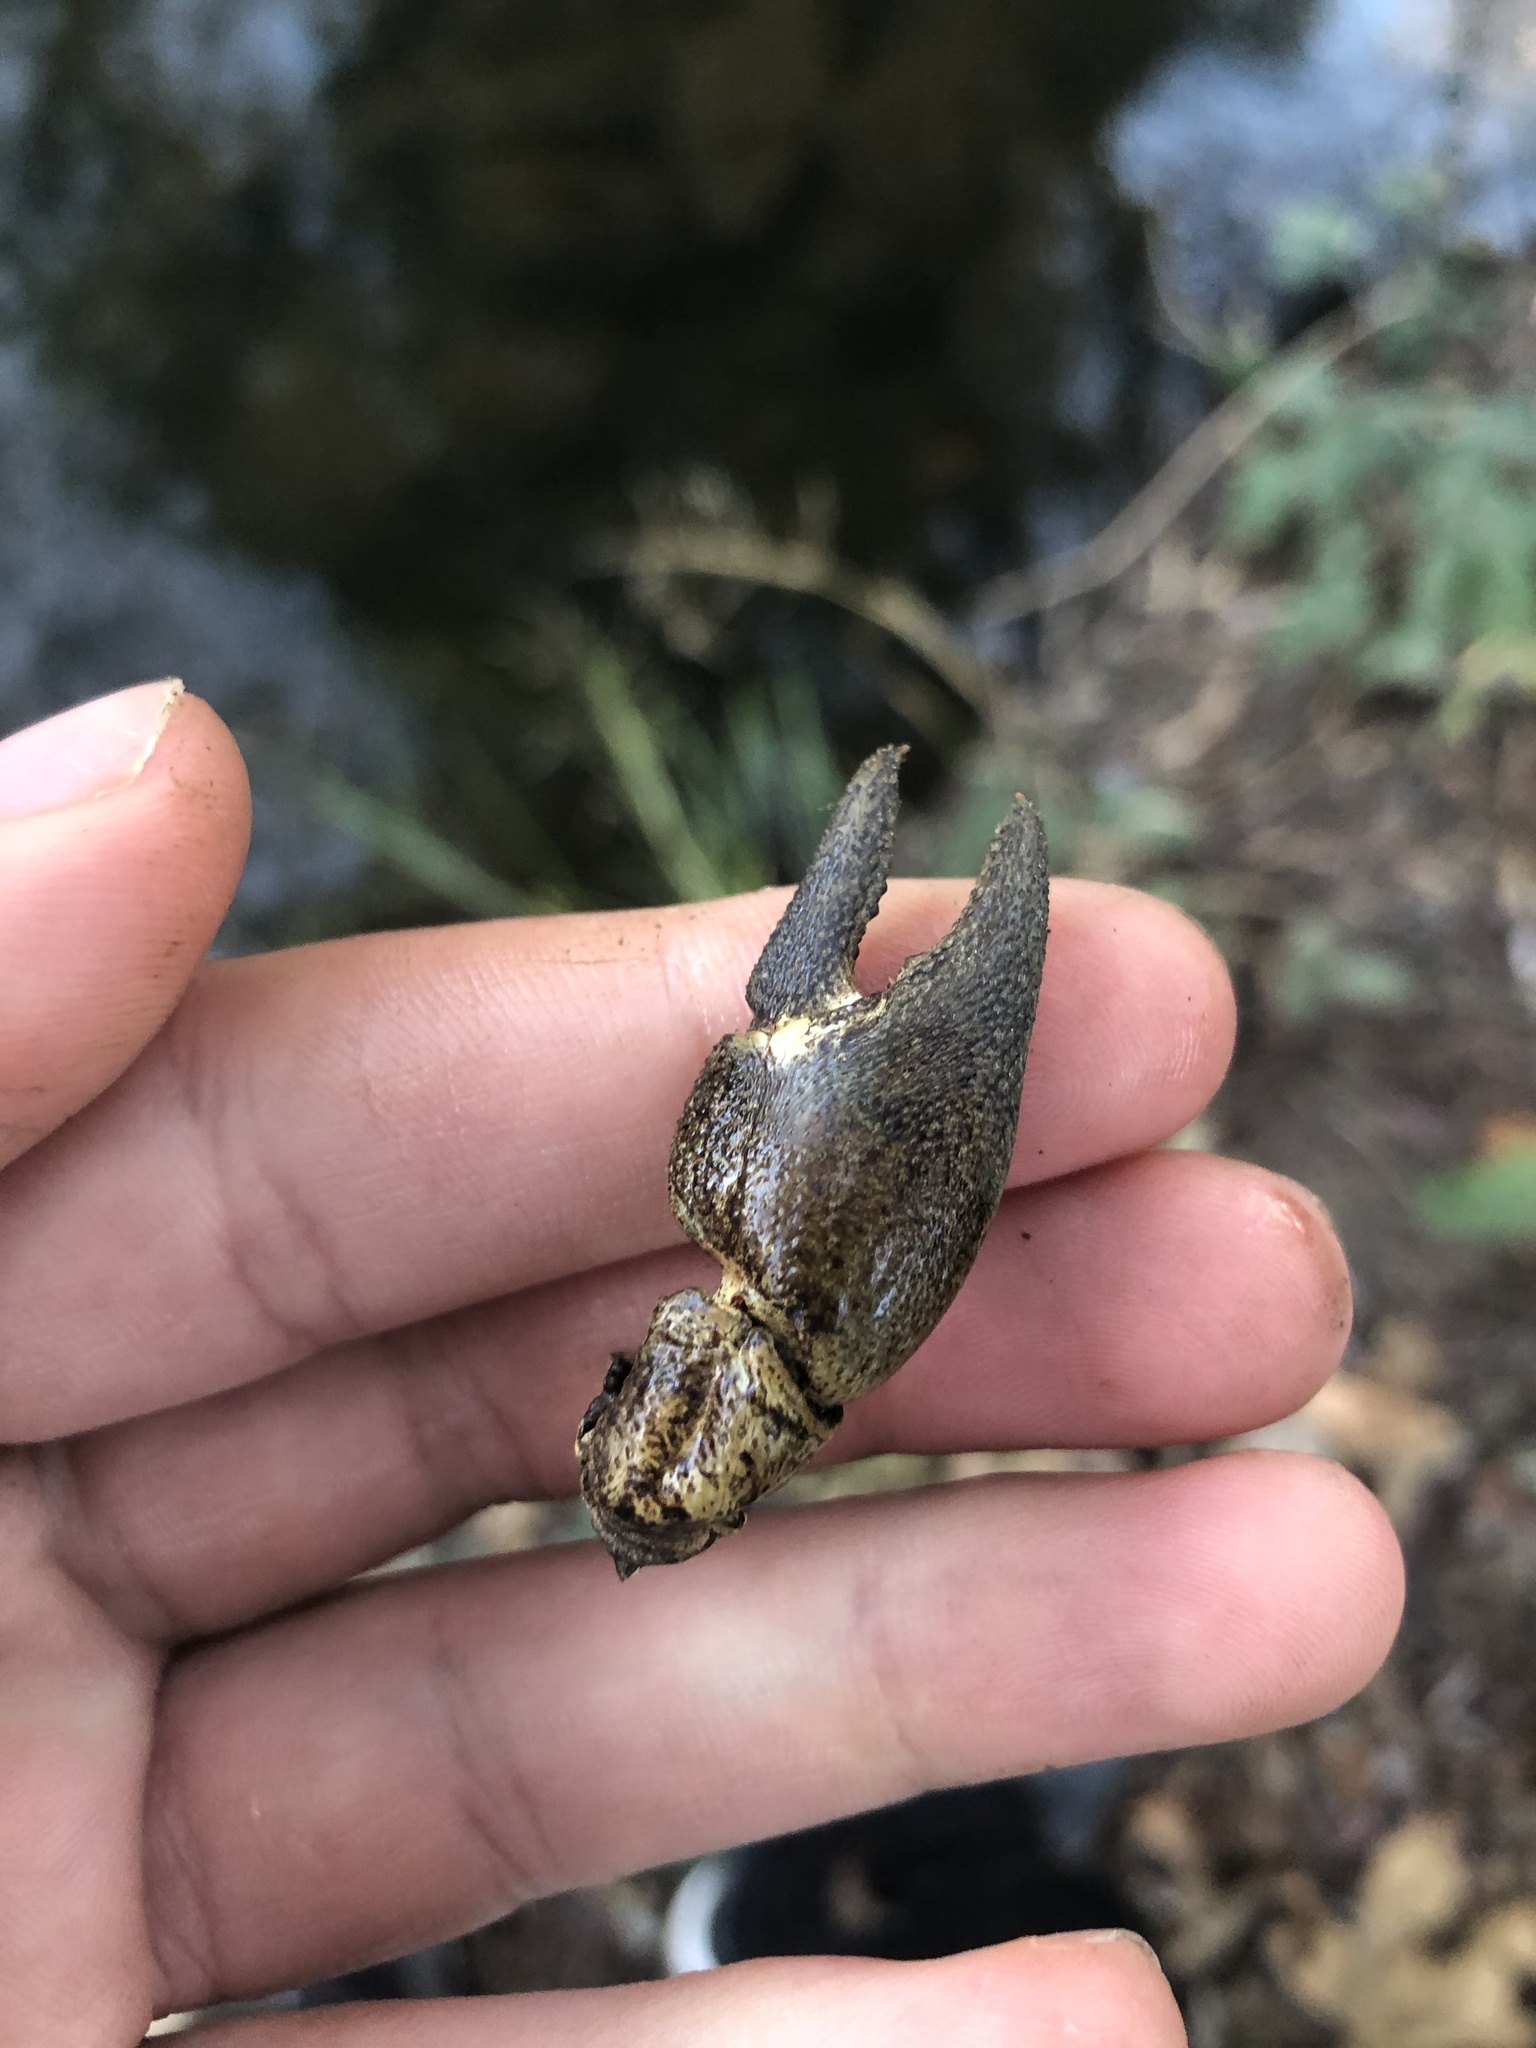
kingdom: Animalia
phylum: Arthropoda
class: Malacostraca
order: Decapoda
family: Astacidae
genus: Pacifastacus
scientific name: Pacifastacus leniusculus
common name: Signal crayfish
